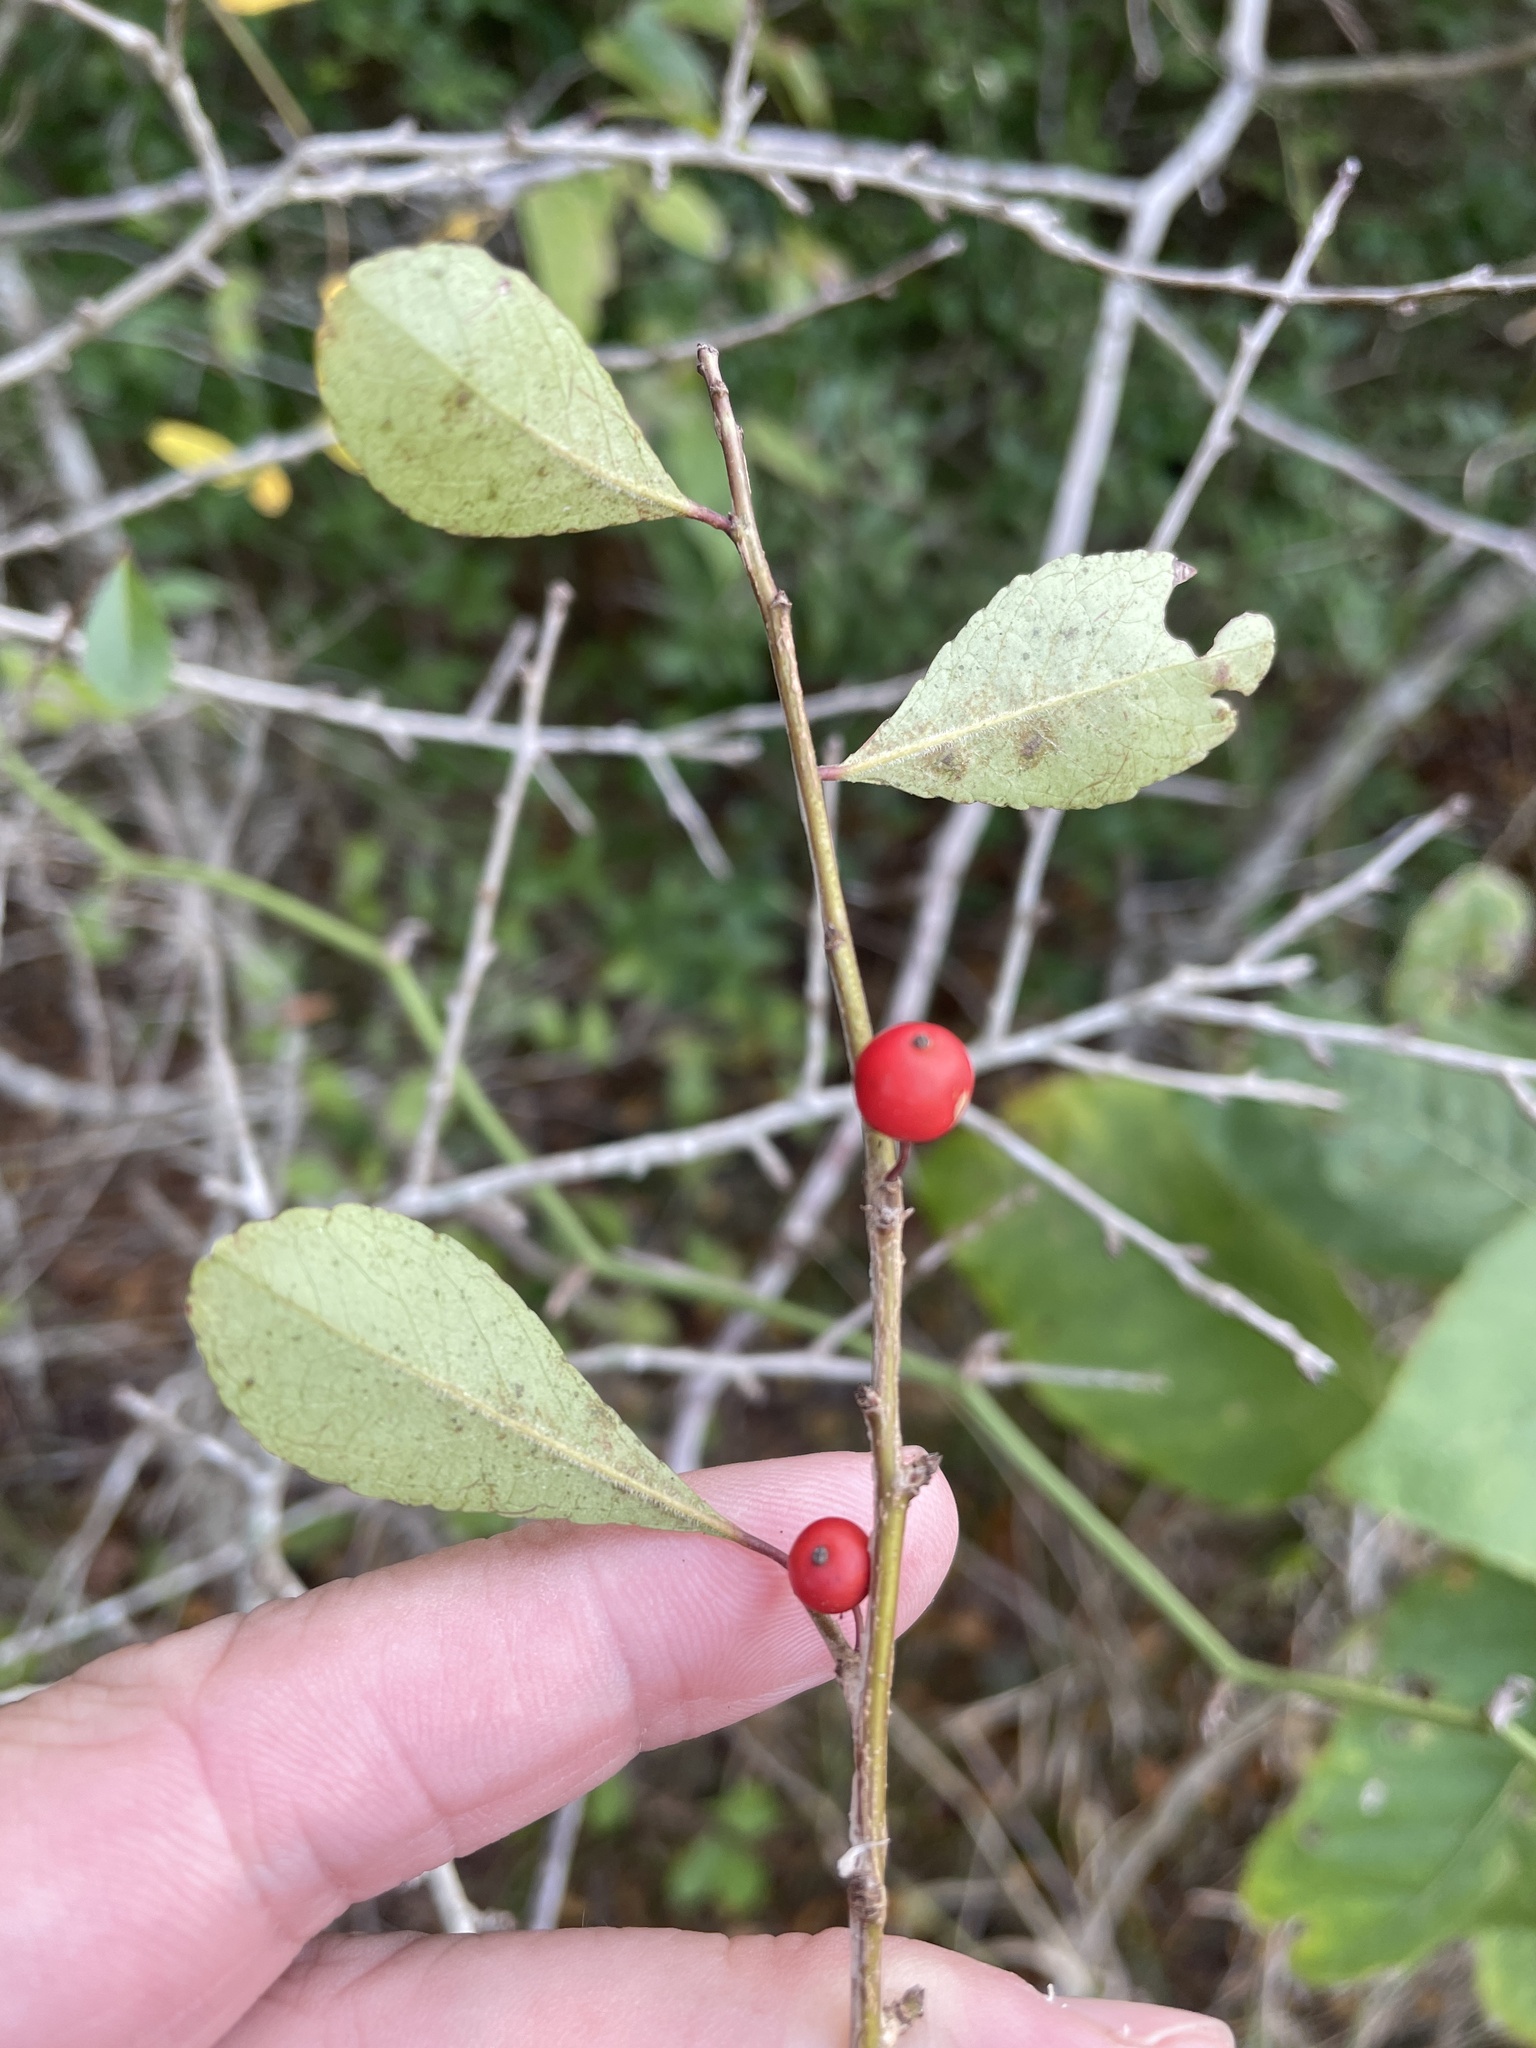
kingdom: Plantae
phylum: Tracheophyta
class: Magnoliopsida
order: Aquifoliales
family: Aquifoliaceae
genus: Ilex
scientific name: Ilex decidua
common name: Possum-haw
